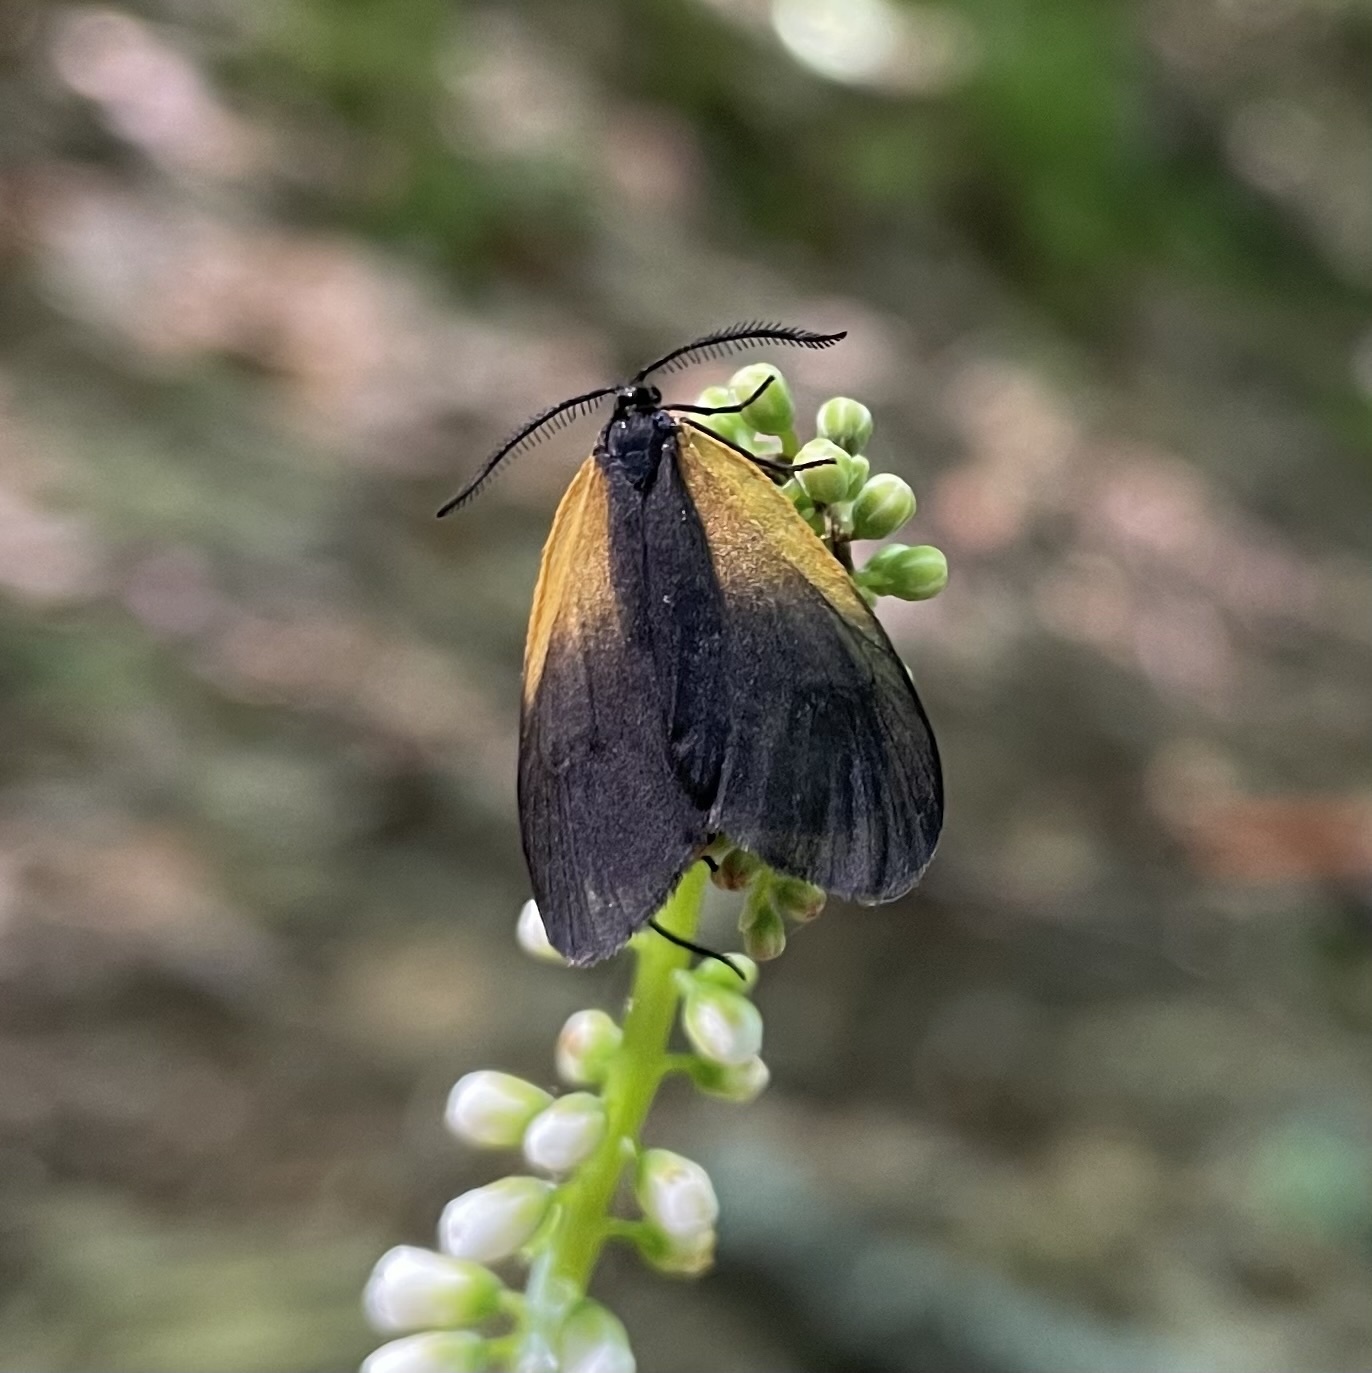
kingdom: Animalia
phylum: Arthropoda
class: Insecta
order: Lepidoptera
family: Zygaenidae
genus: Malthaca
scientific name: Malthaca dimidiata
